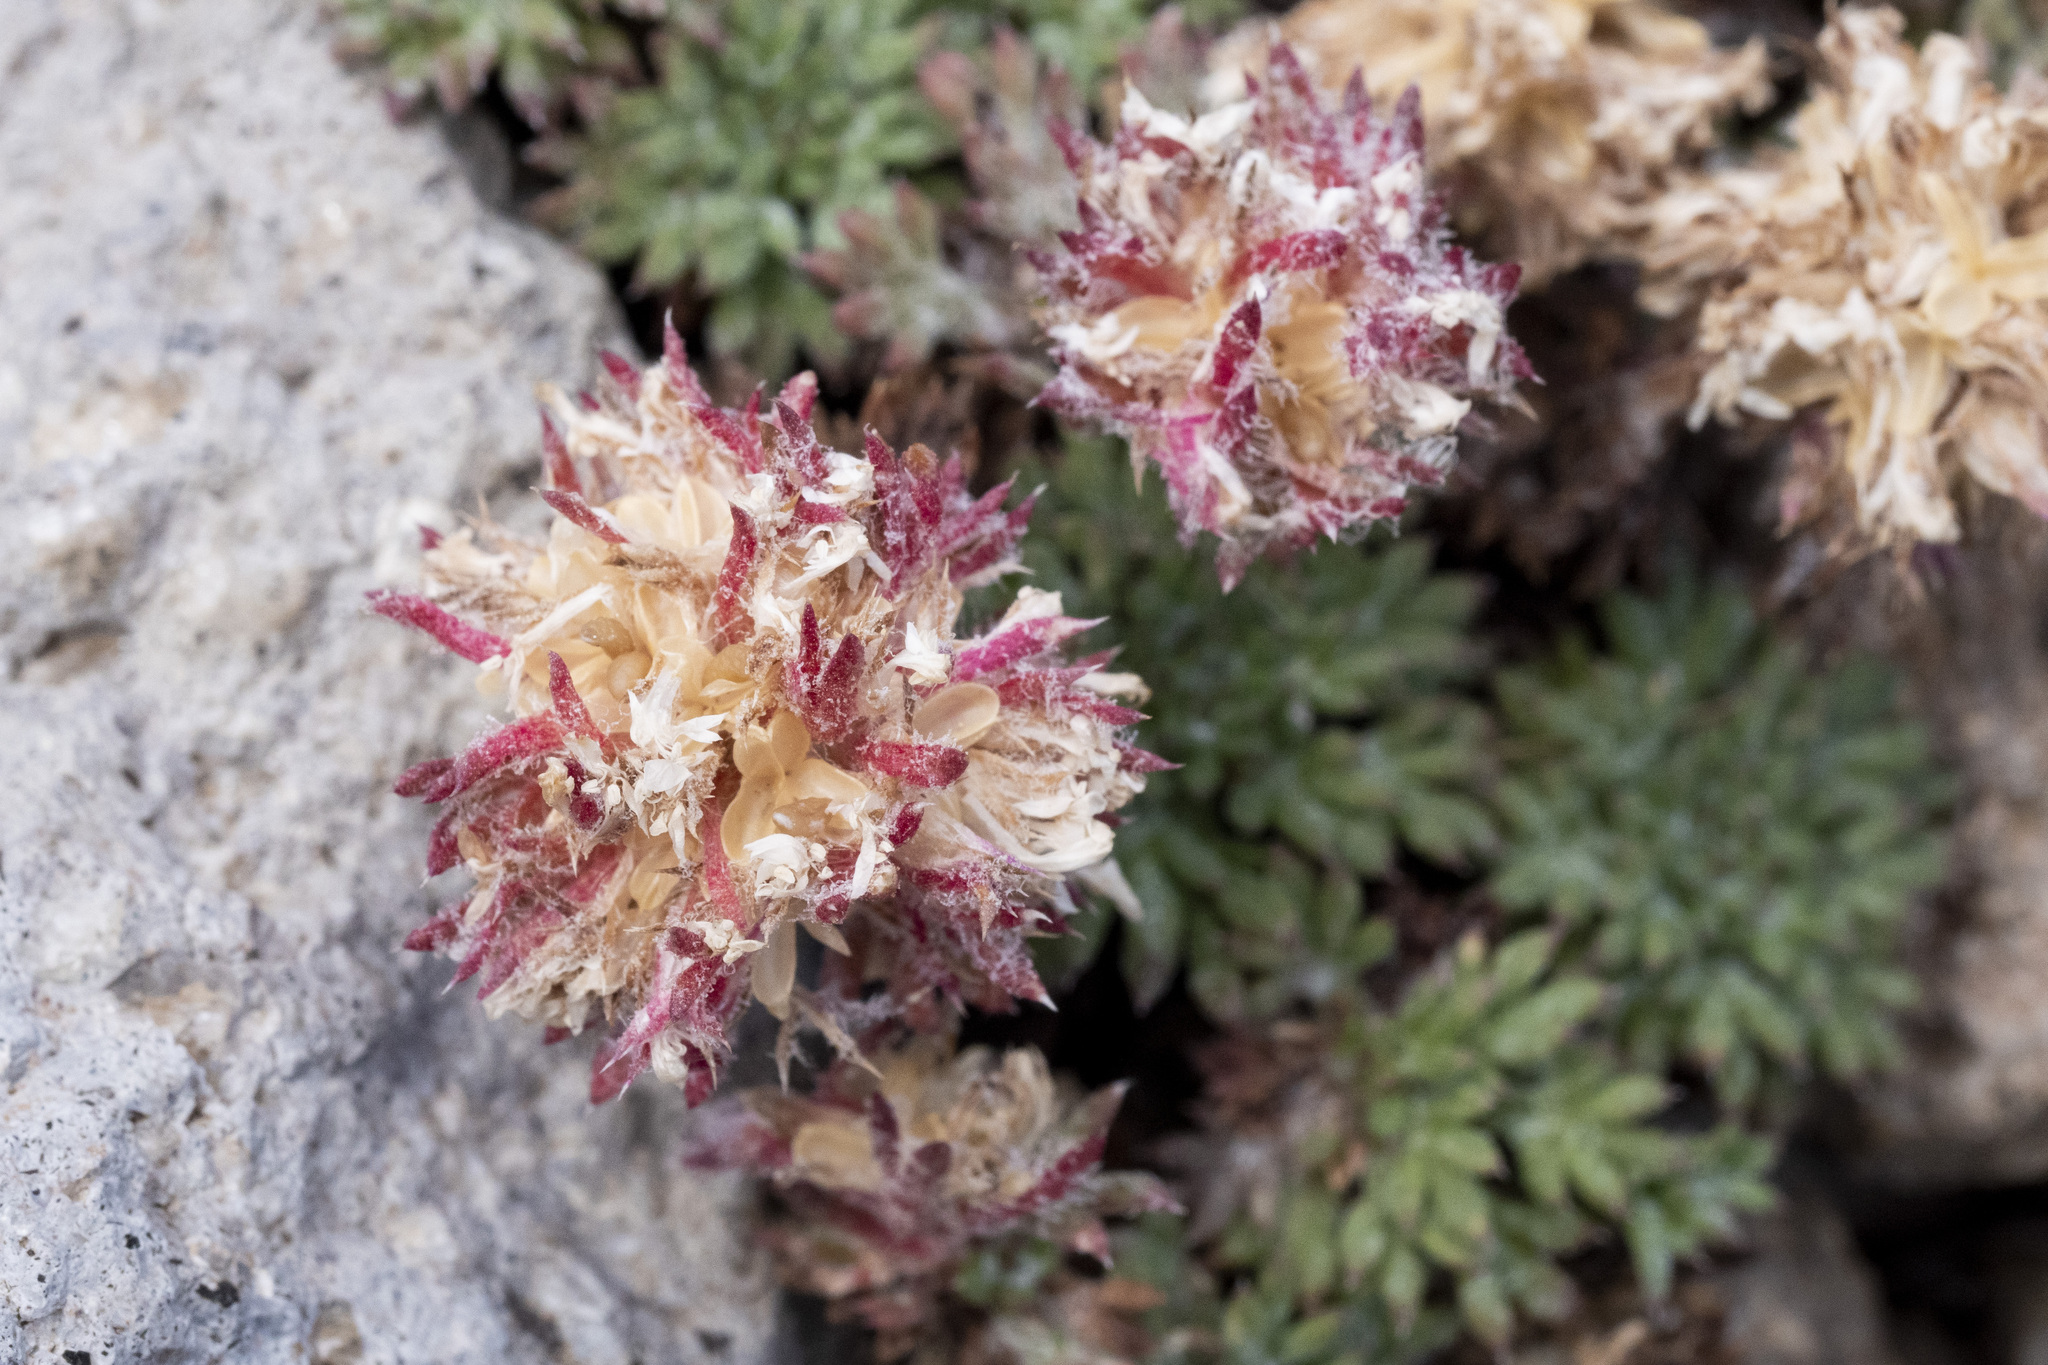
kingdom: Plantae
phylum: Tracheophyta
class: Magnoliopsida
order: Ericales
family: Polemoniaceae
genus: Ipomopsis
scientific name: Ipomopsis congesta
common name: Ball-head gilia
